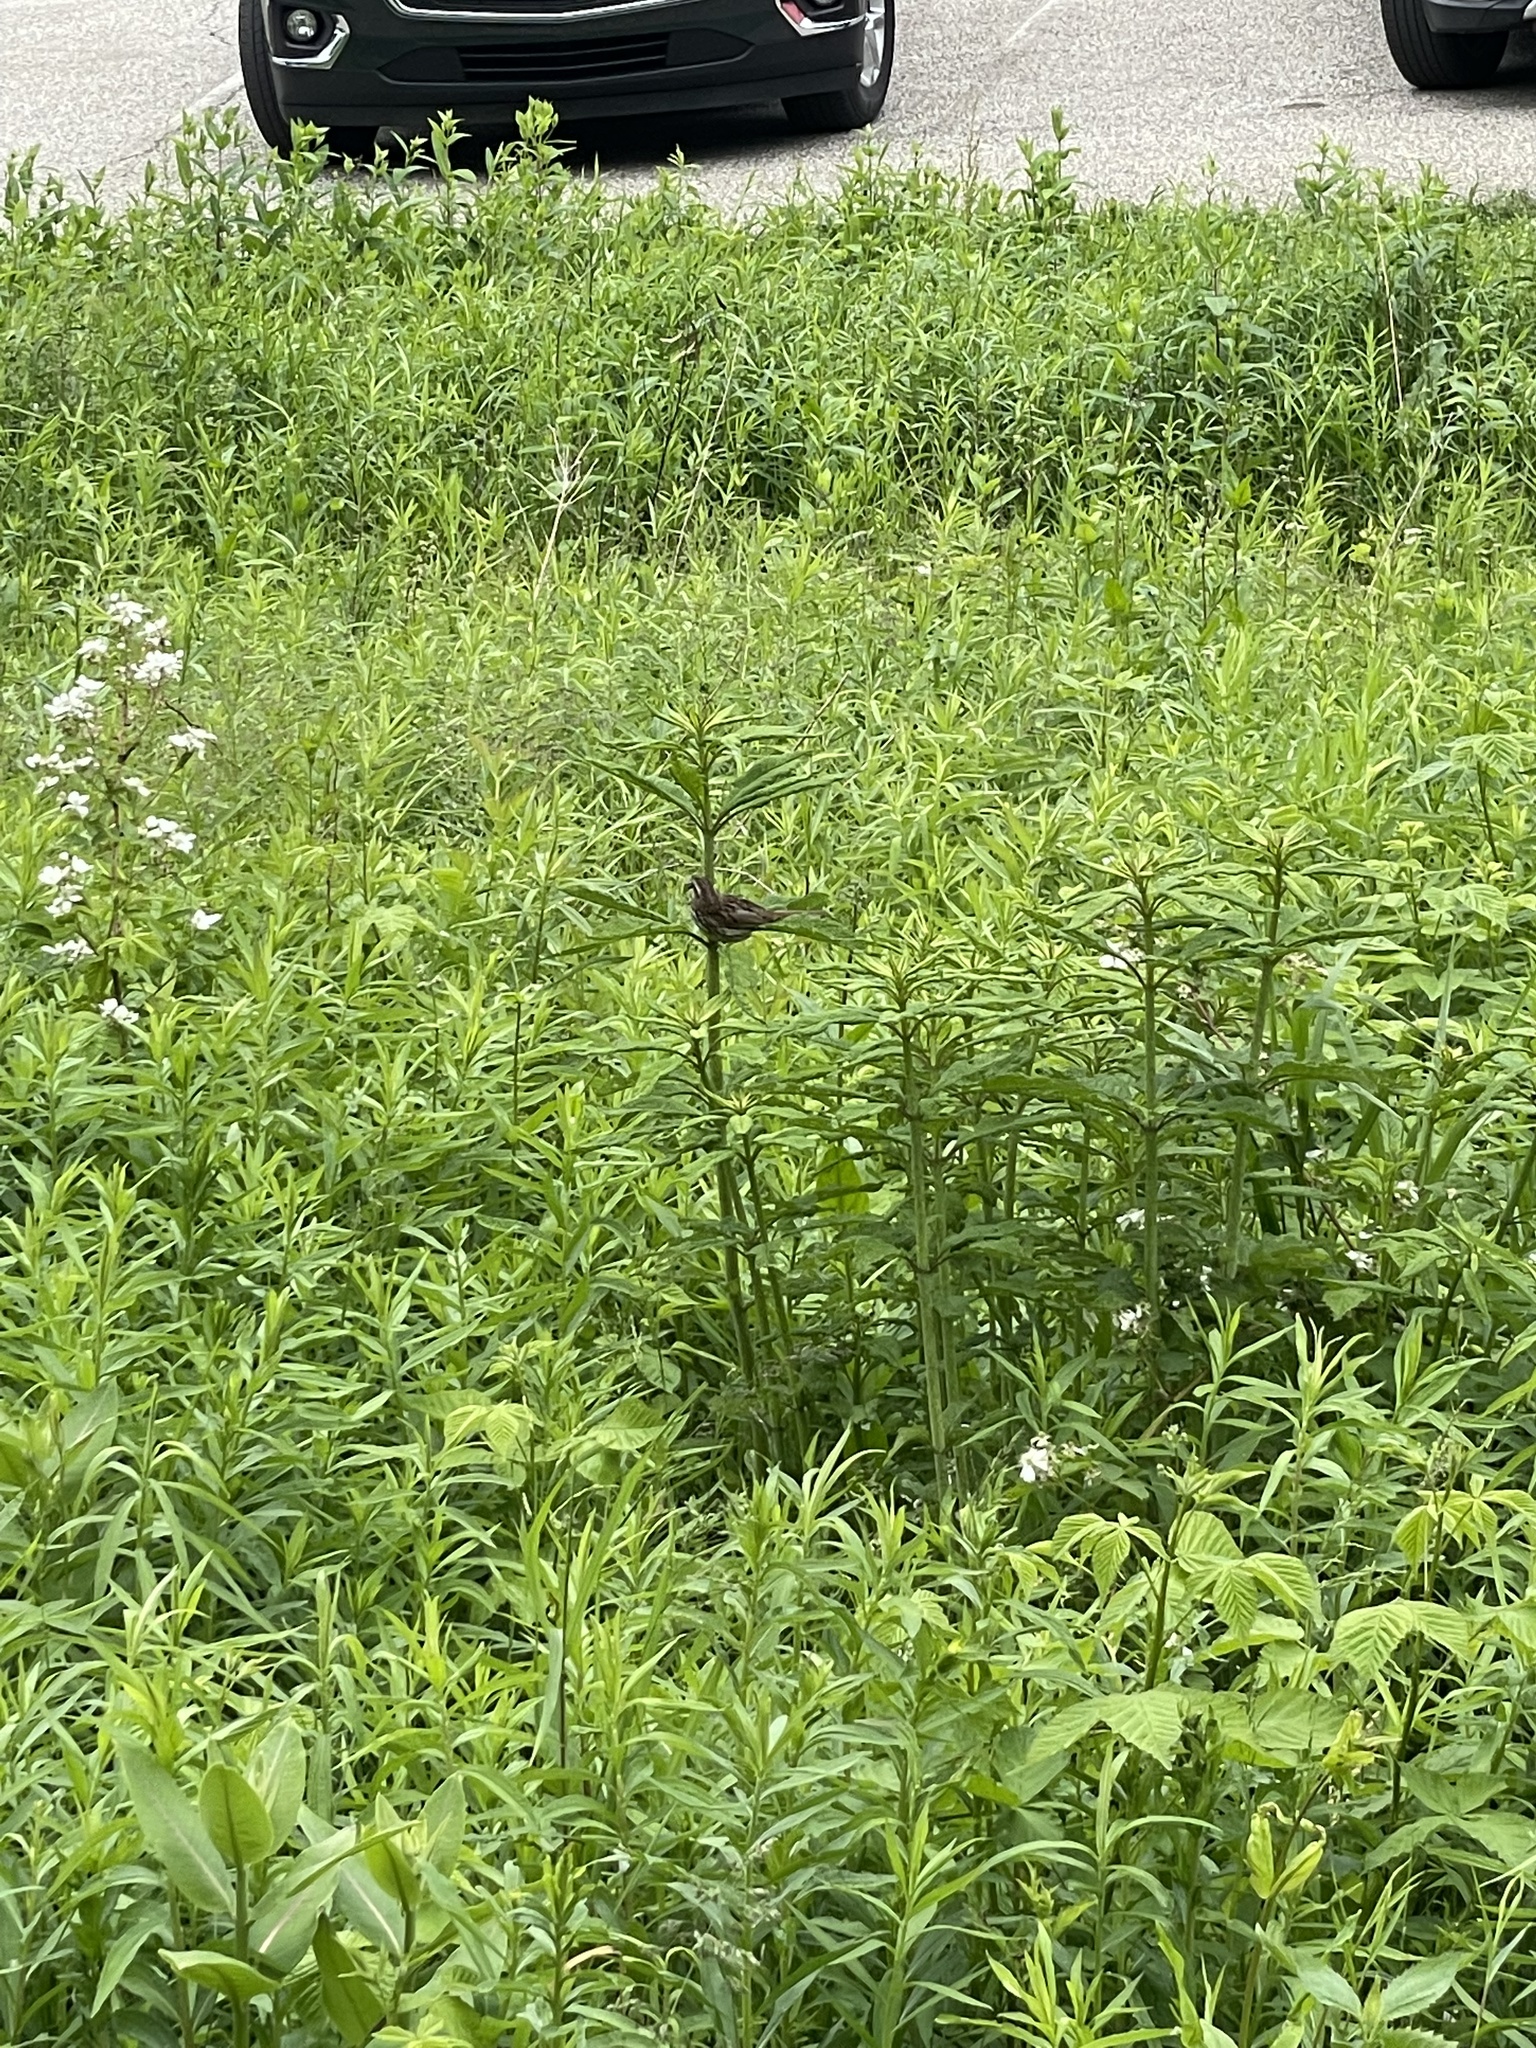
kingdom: Animalia
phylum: Chordata
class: Aves
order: Passeriformes
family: Passerellidae
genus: Melospiza
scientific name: Melospiza melodia
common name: Song sparrow
